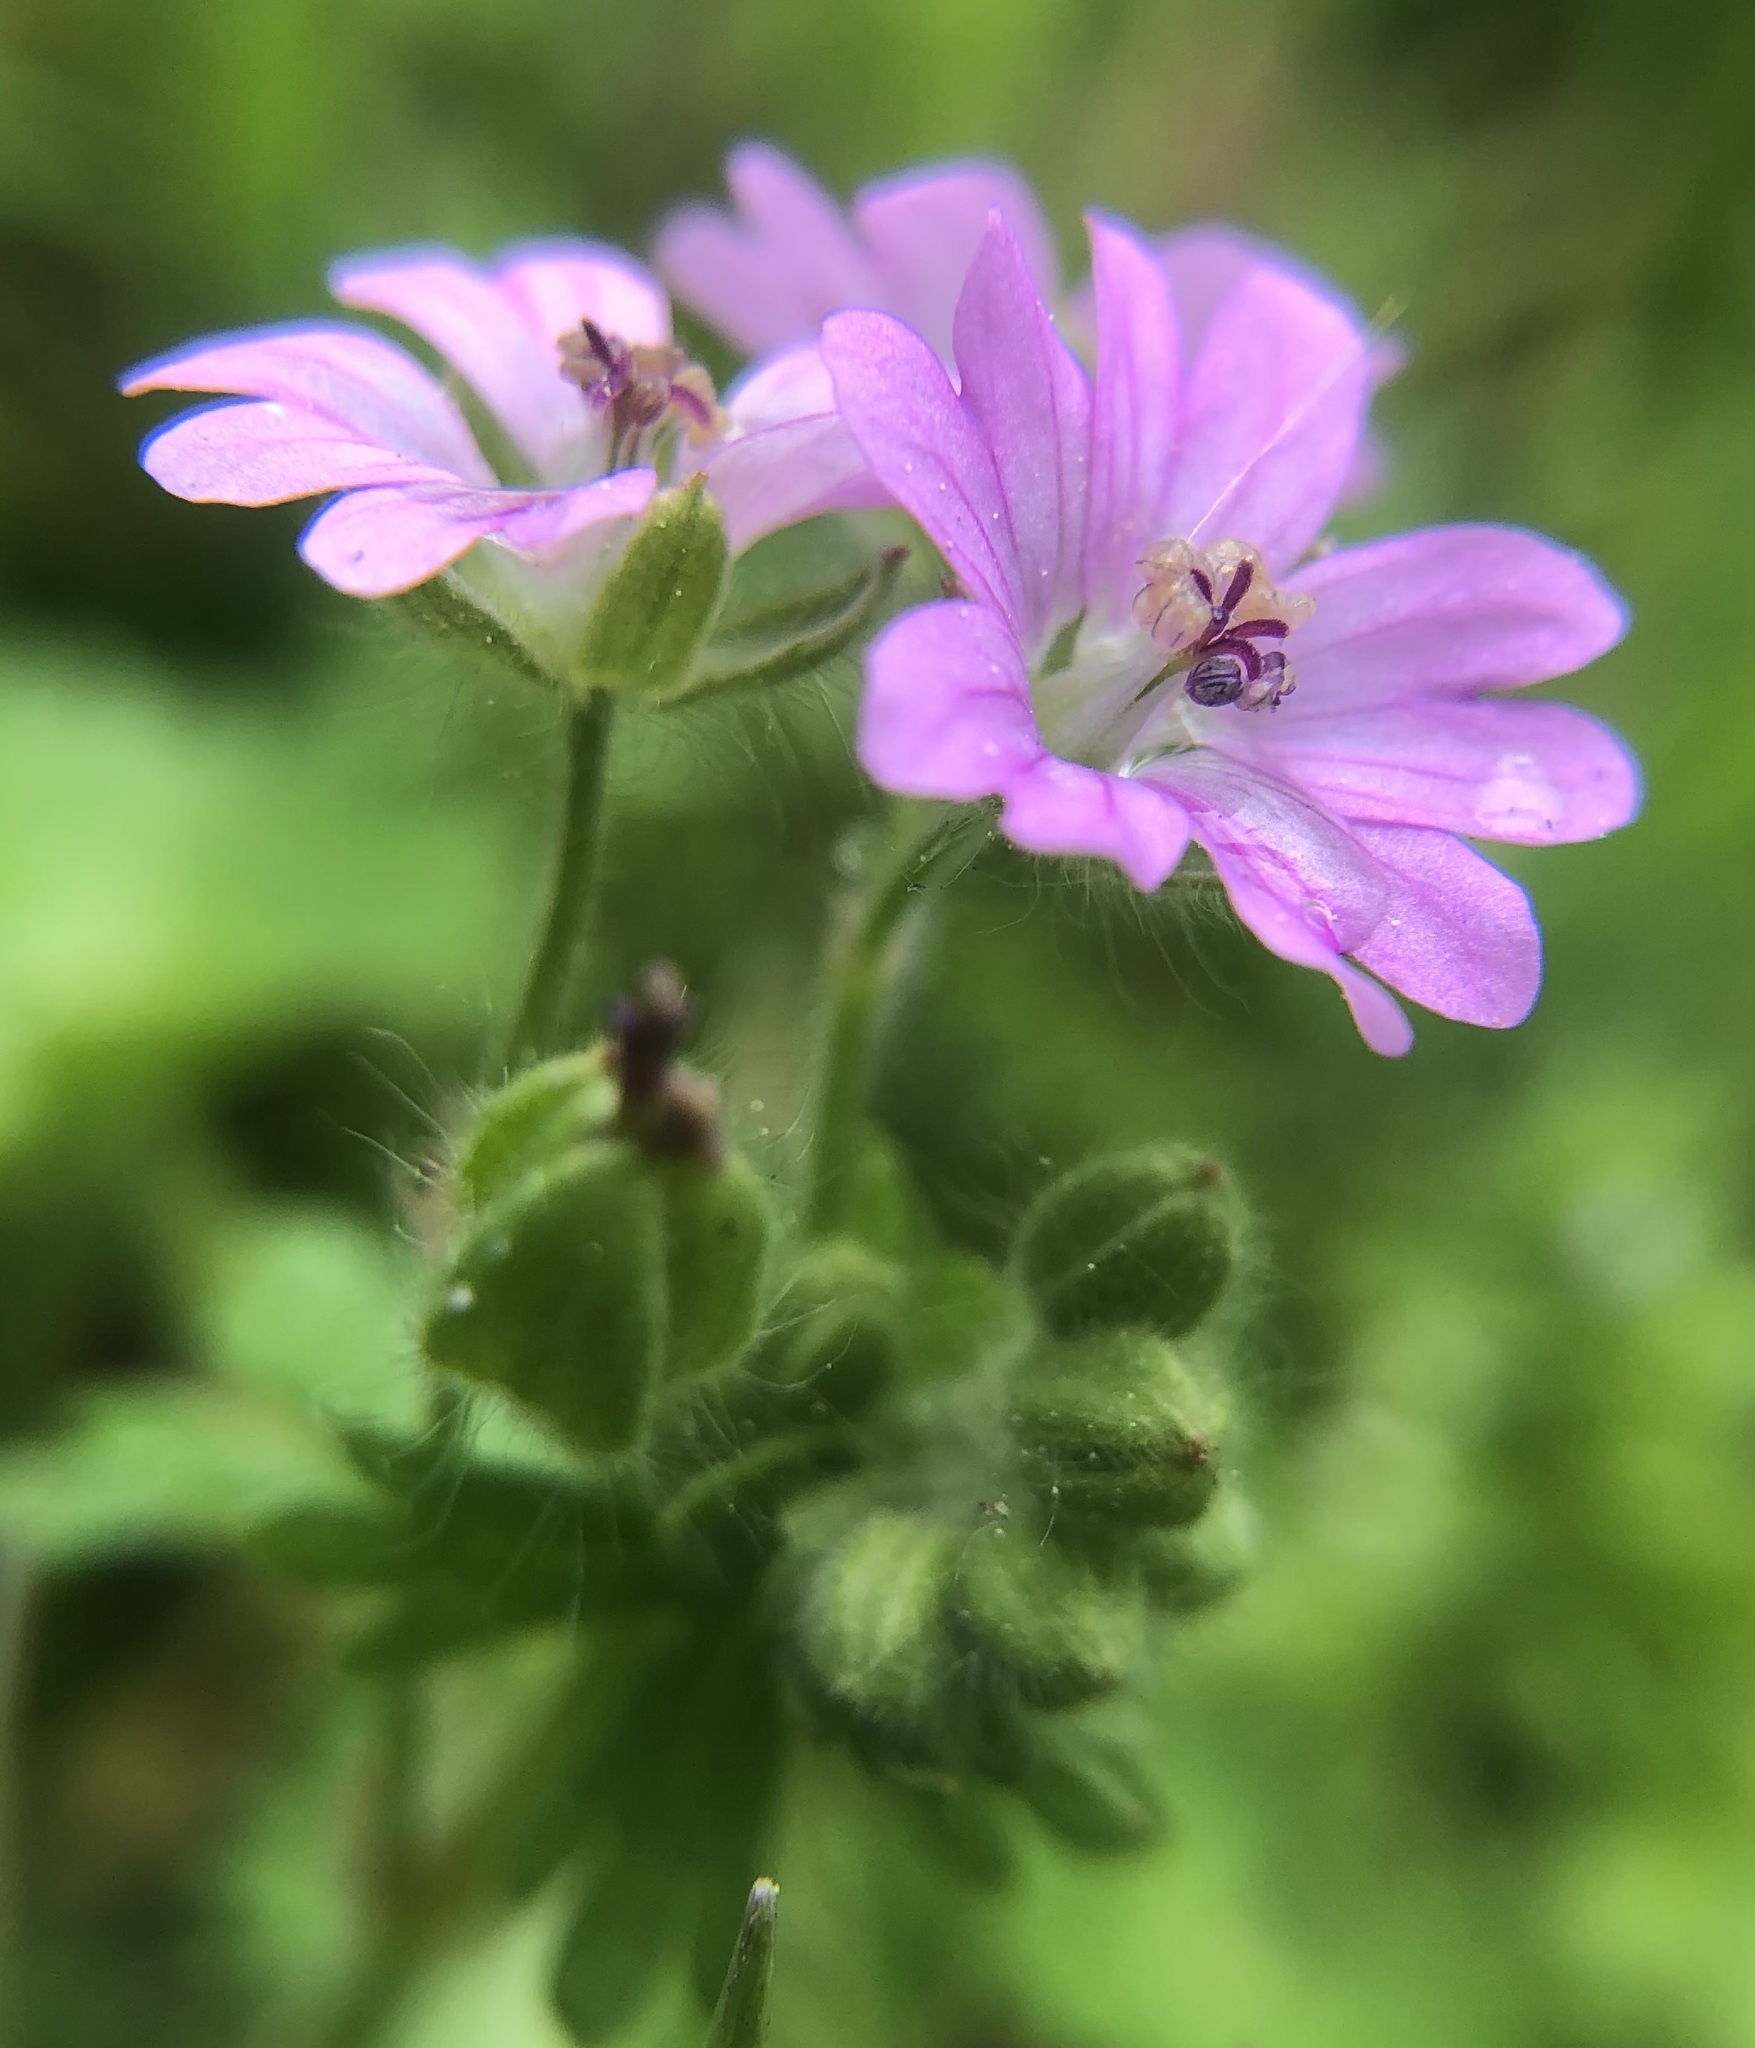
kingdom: Plantae
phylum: Tracheophyta
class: Magnoliopsida
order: Geraniales
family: Geraniaceae
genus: Geranium
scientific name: Geranium molle
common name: Dove's-foot crane's-bill
